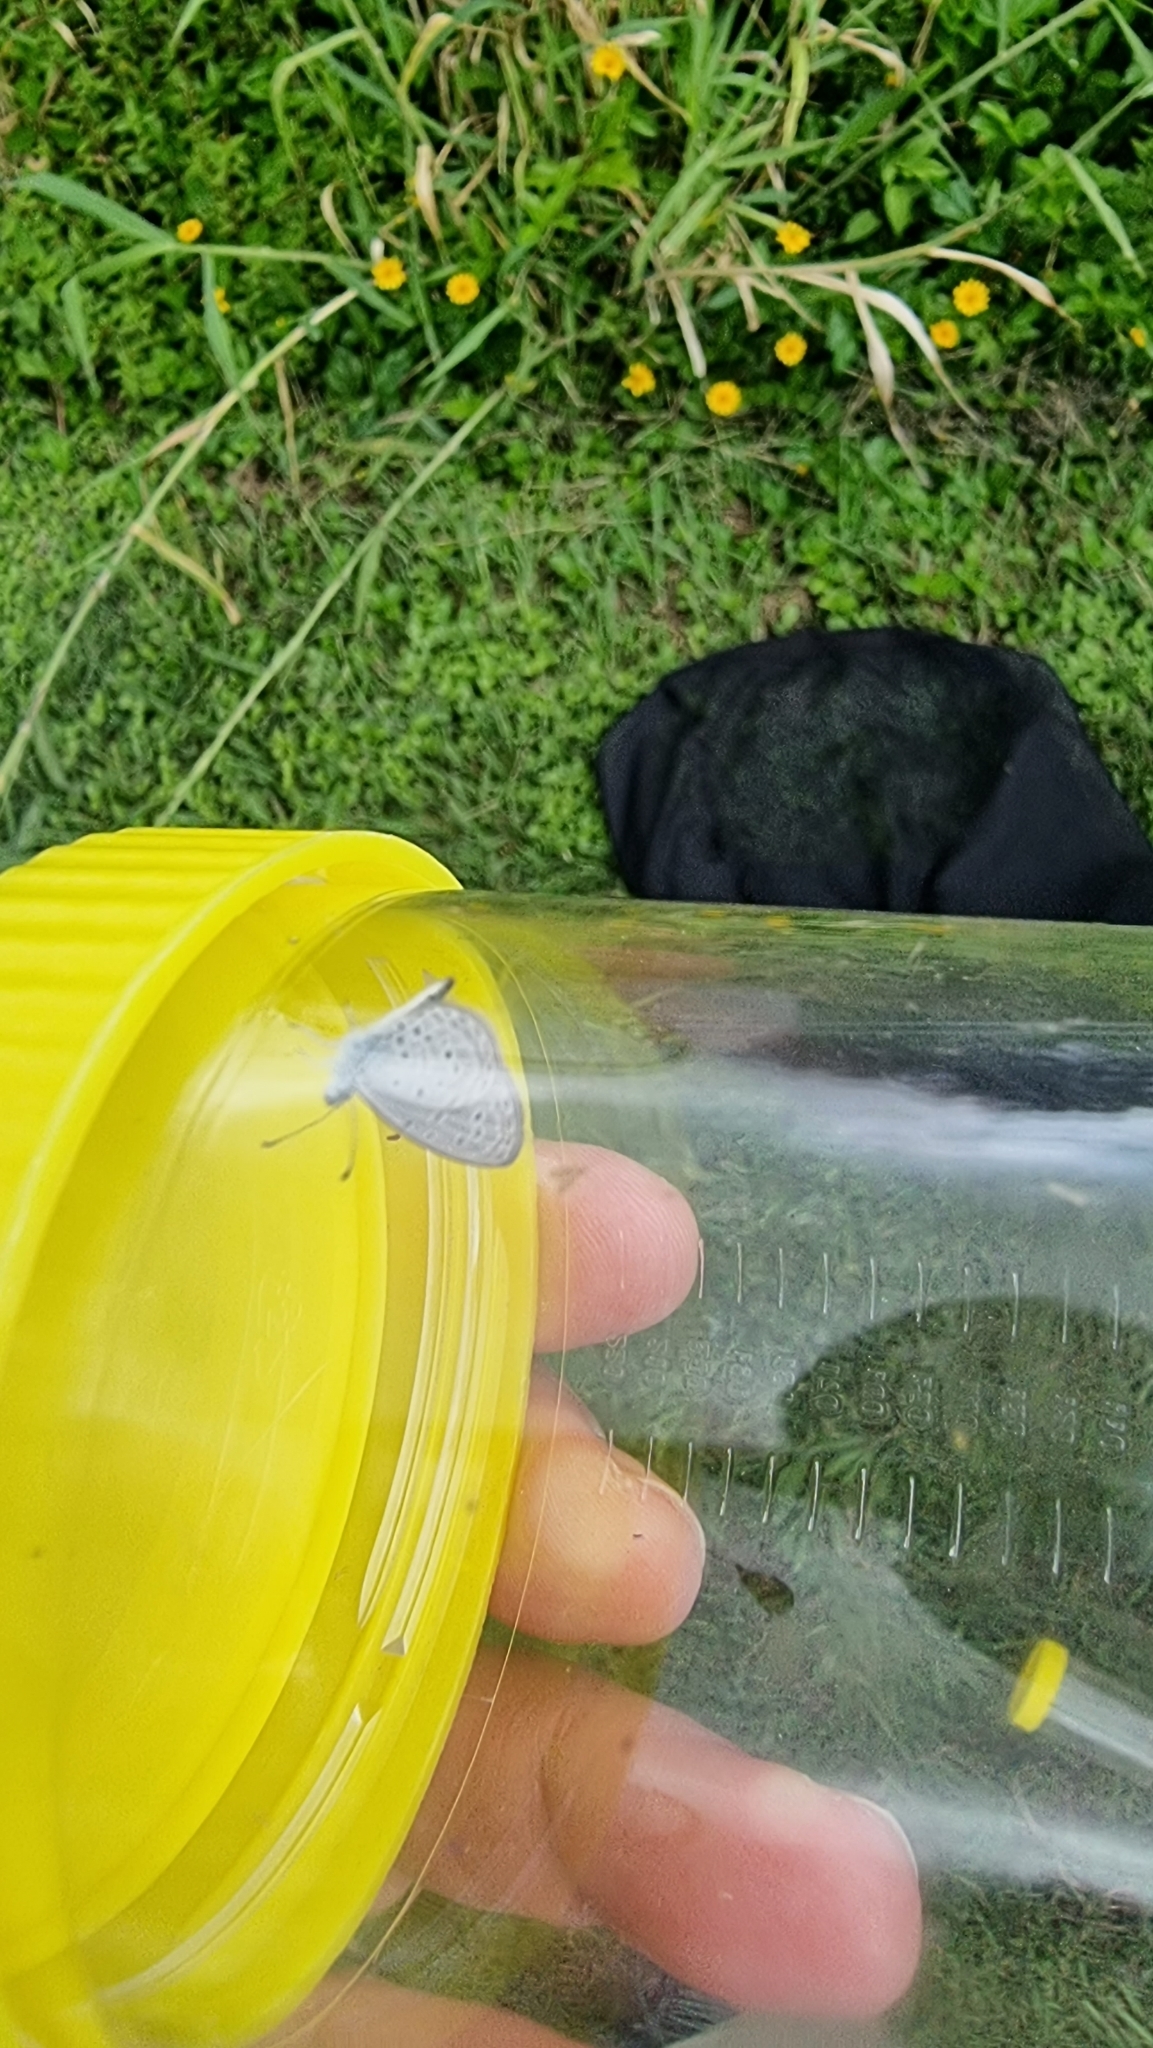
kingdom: Animalia
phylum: Arthropoda
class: Insecta
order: Lepidoptera
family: Lycaenidae
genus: Zizula
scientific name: Zizula hylax
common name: Gaika blue
